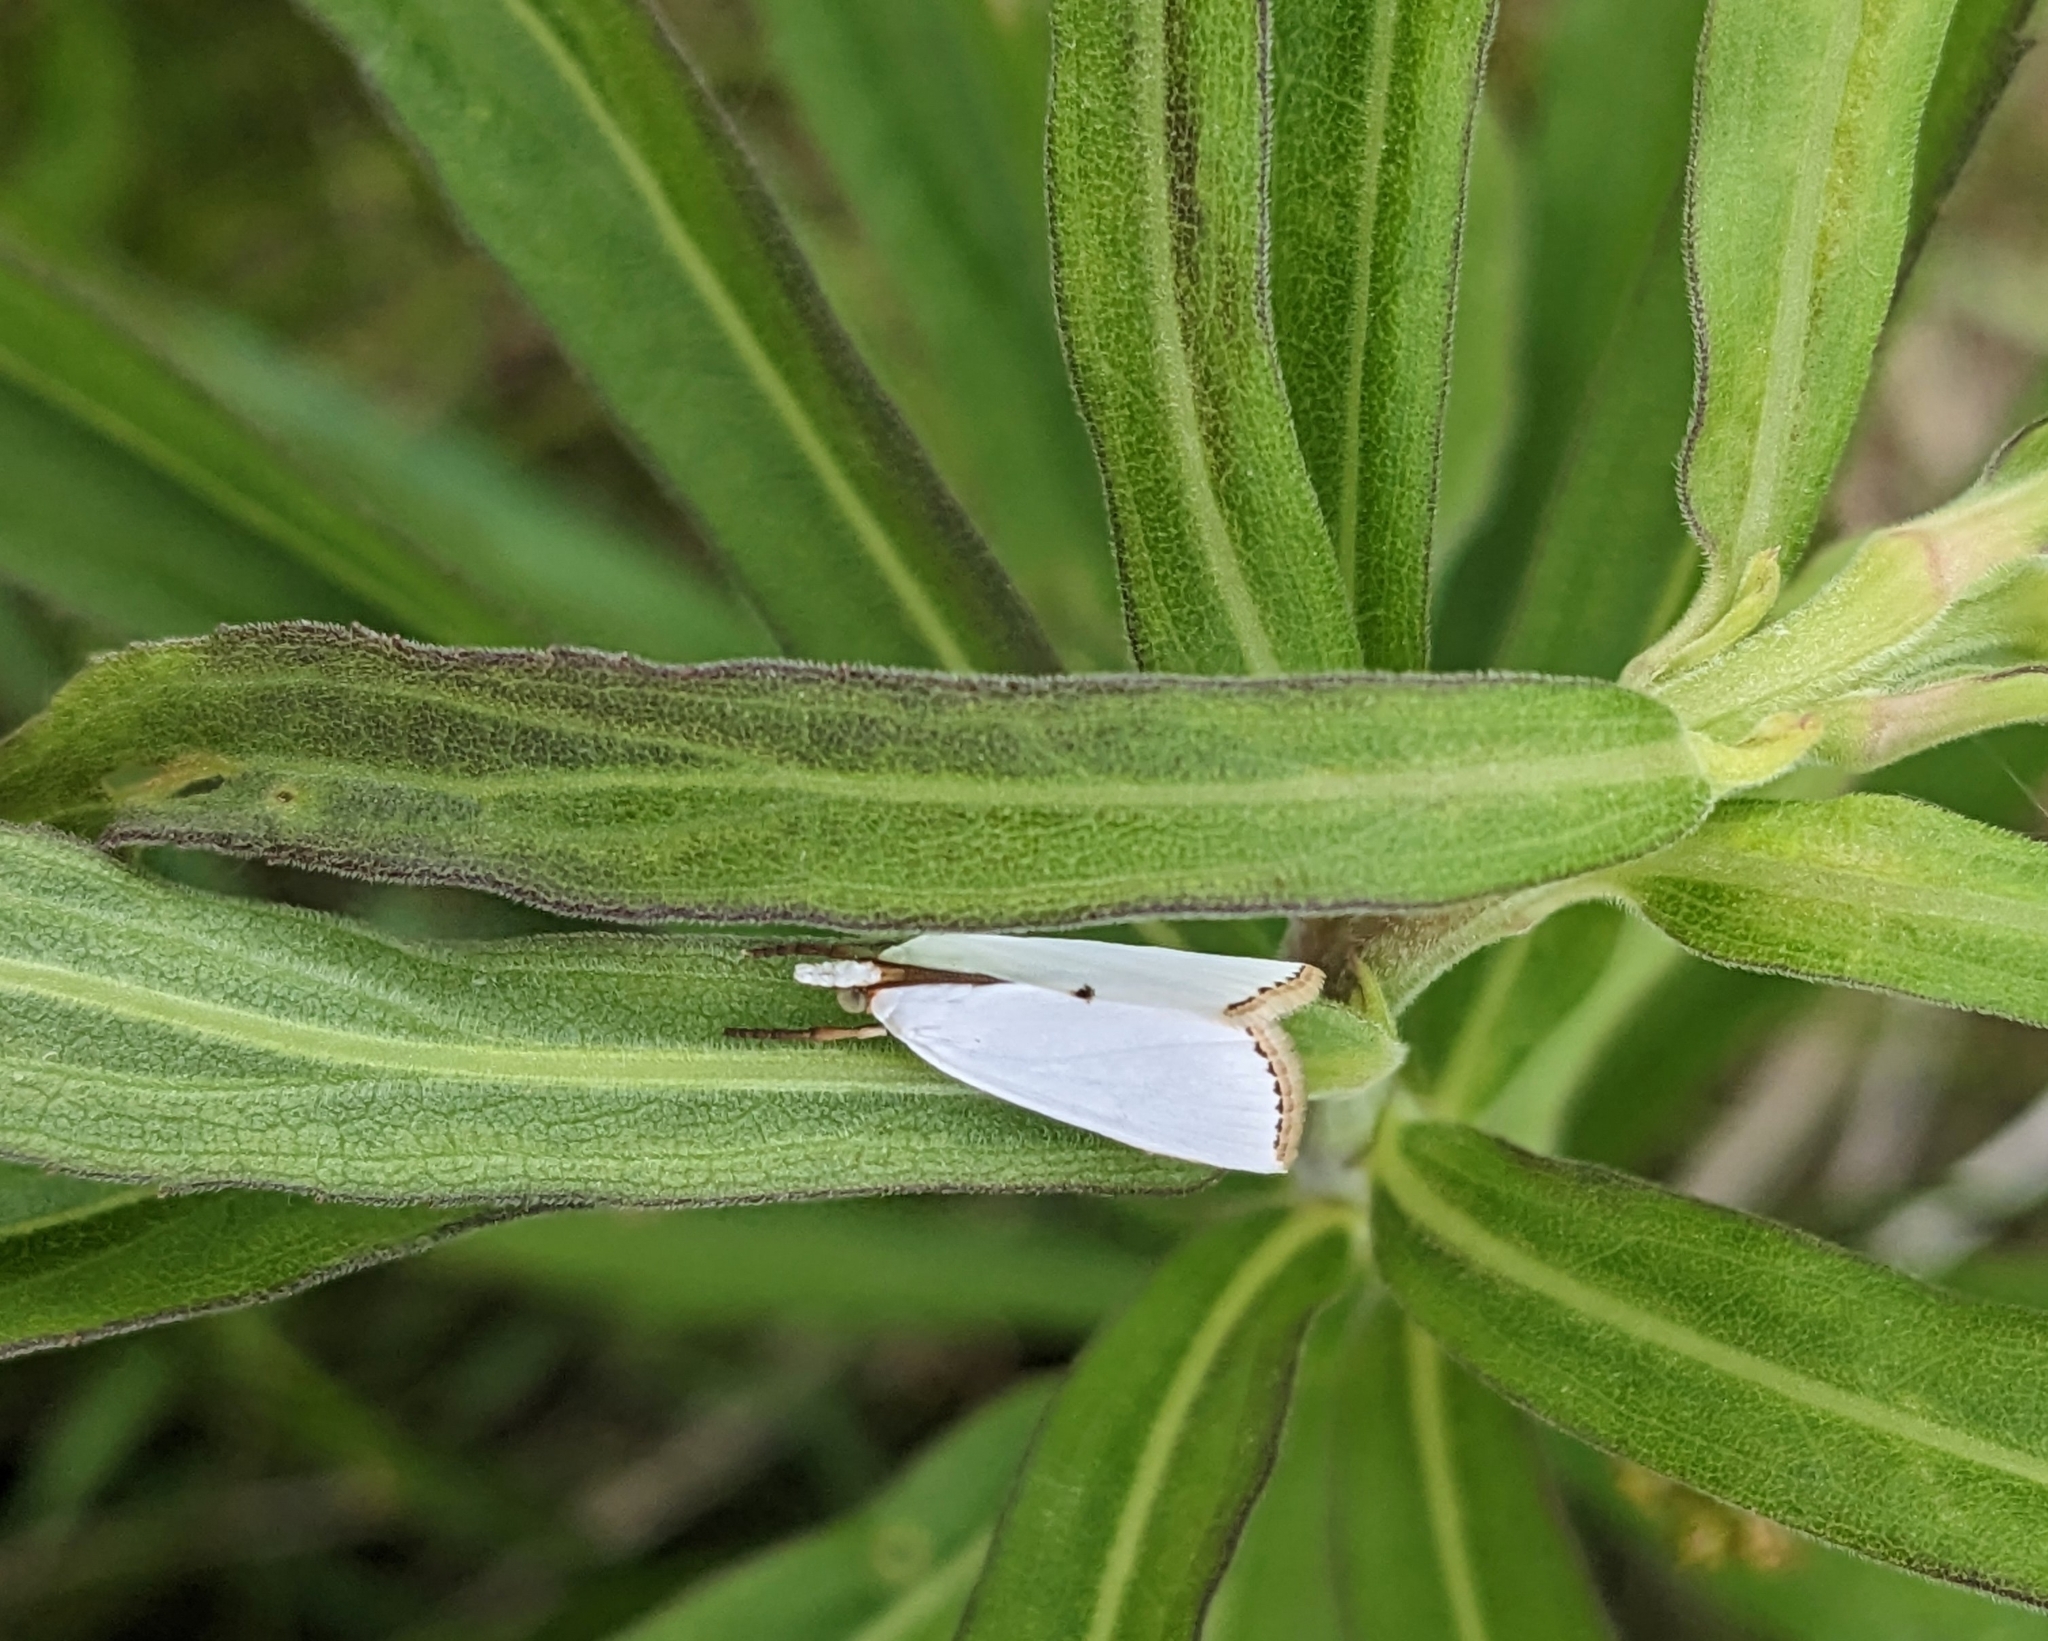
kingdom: Animalia
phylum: Arthropoda
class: Insecta
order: Lepidoptera
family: Crambidae
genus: Argyria
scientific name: Argyria nivalis
